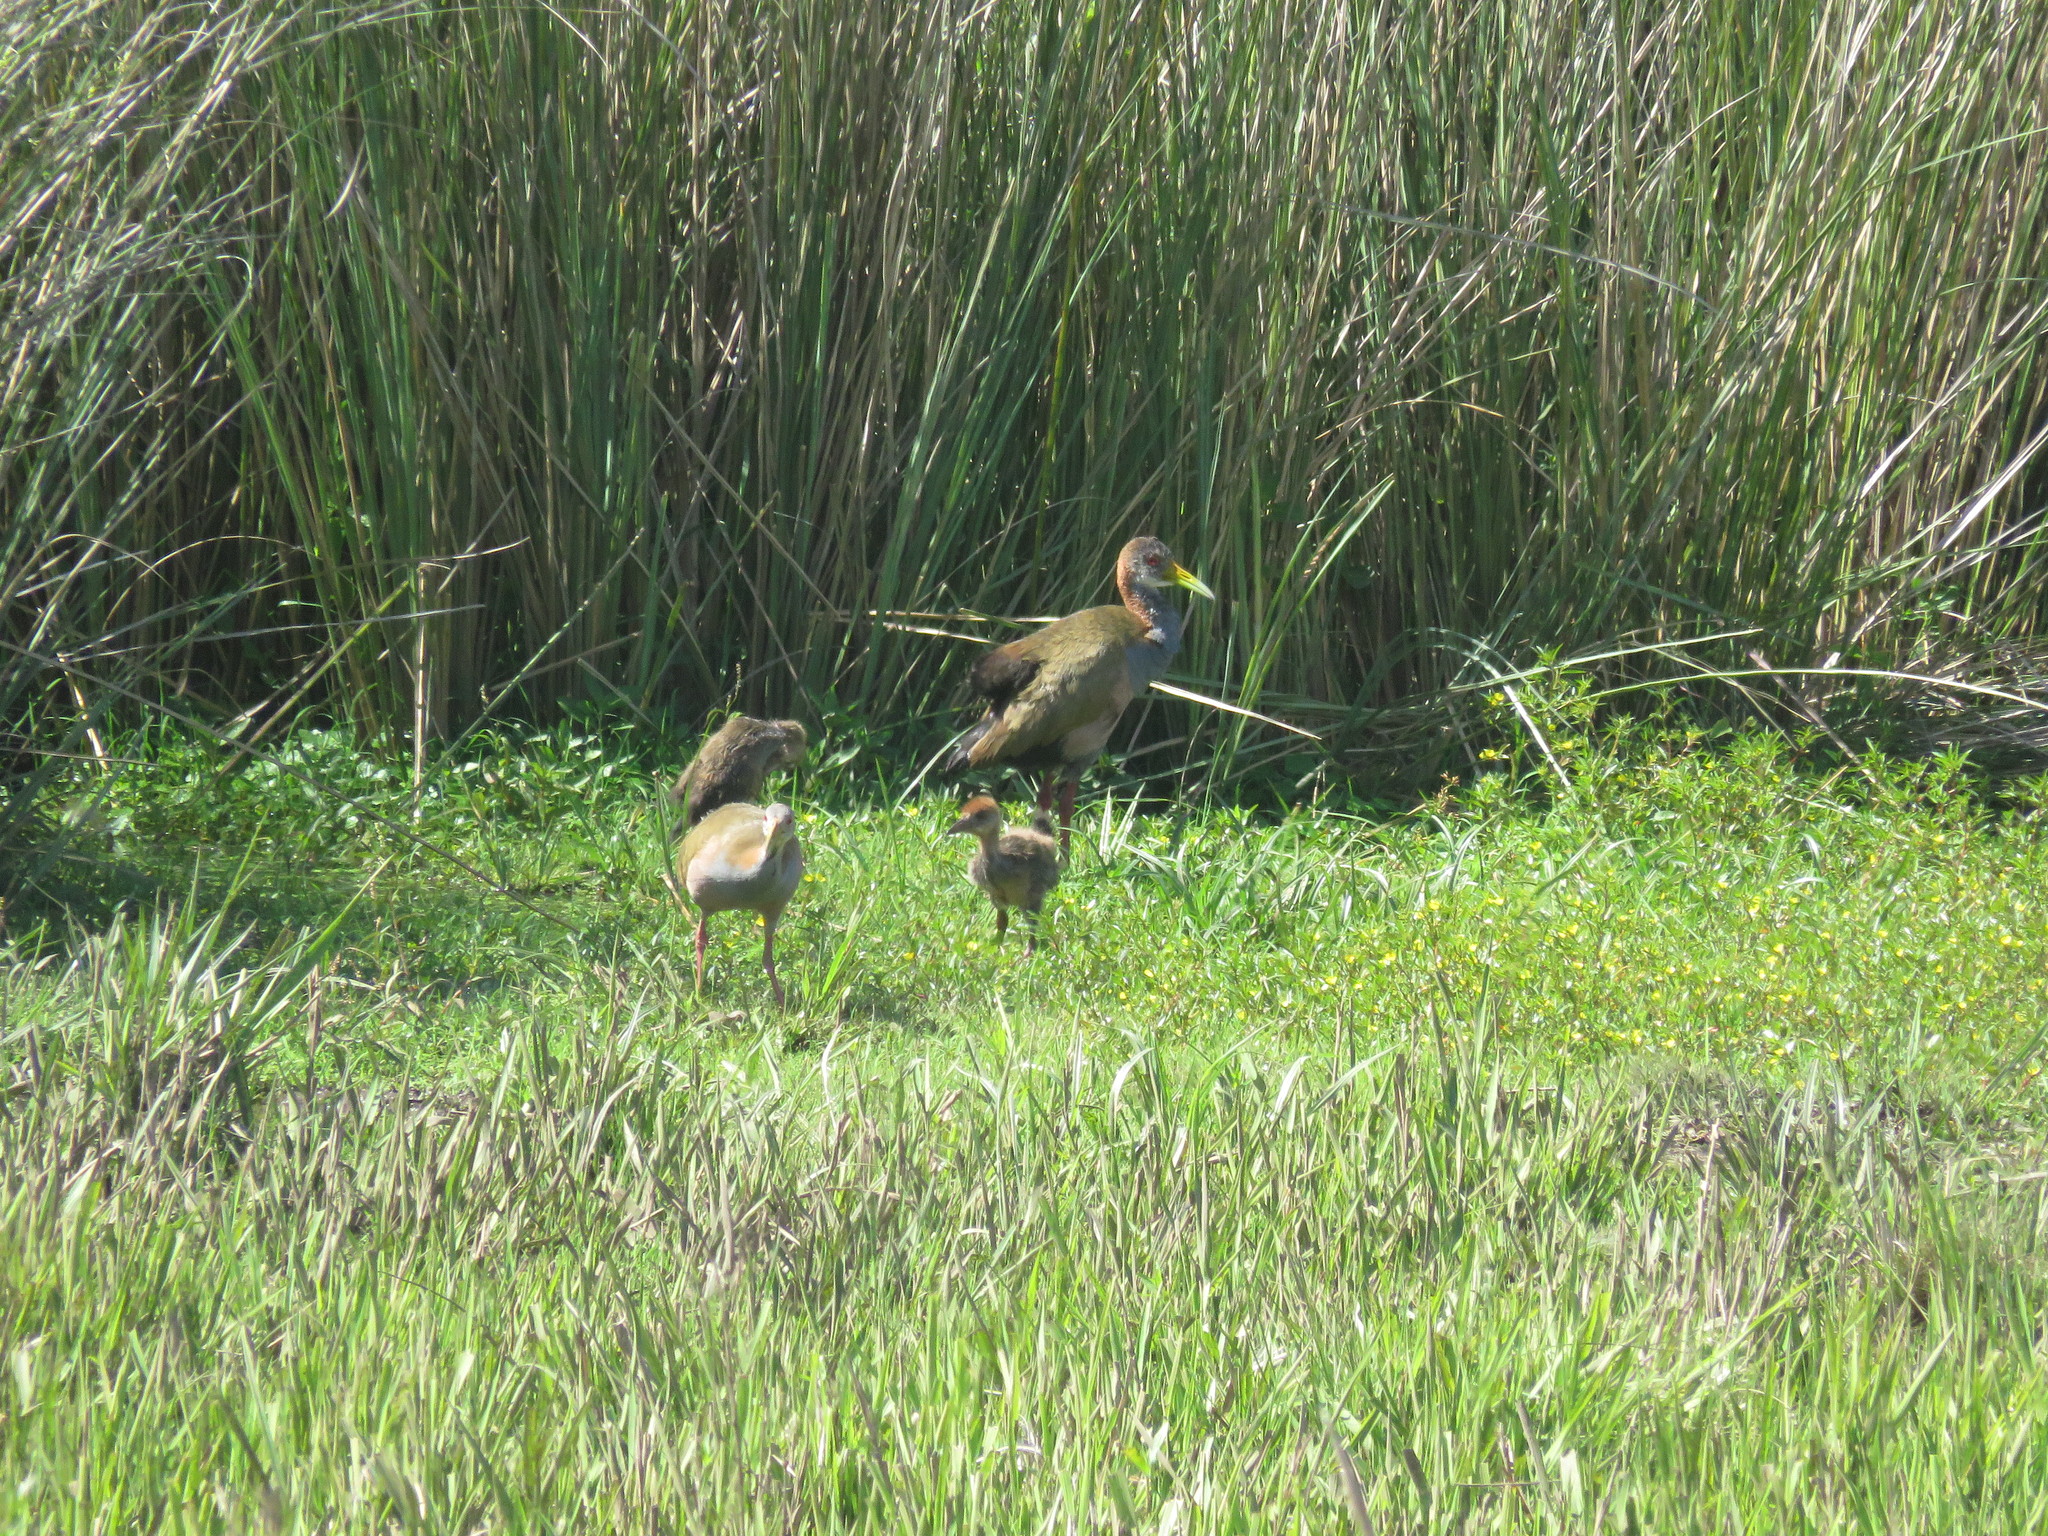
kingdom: Animalia
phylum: Chordata
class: Aves
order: Gruiformes
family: Rallidae
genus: Aramides
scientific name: Aramides ypecaha
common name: Giant wood rail
